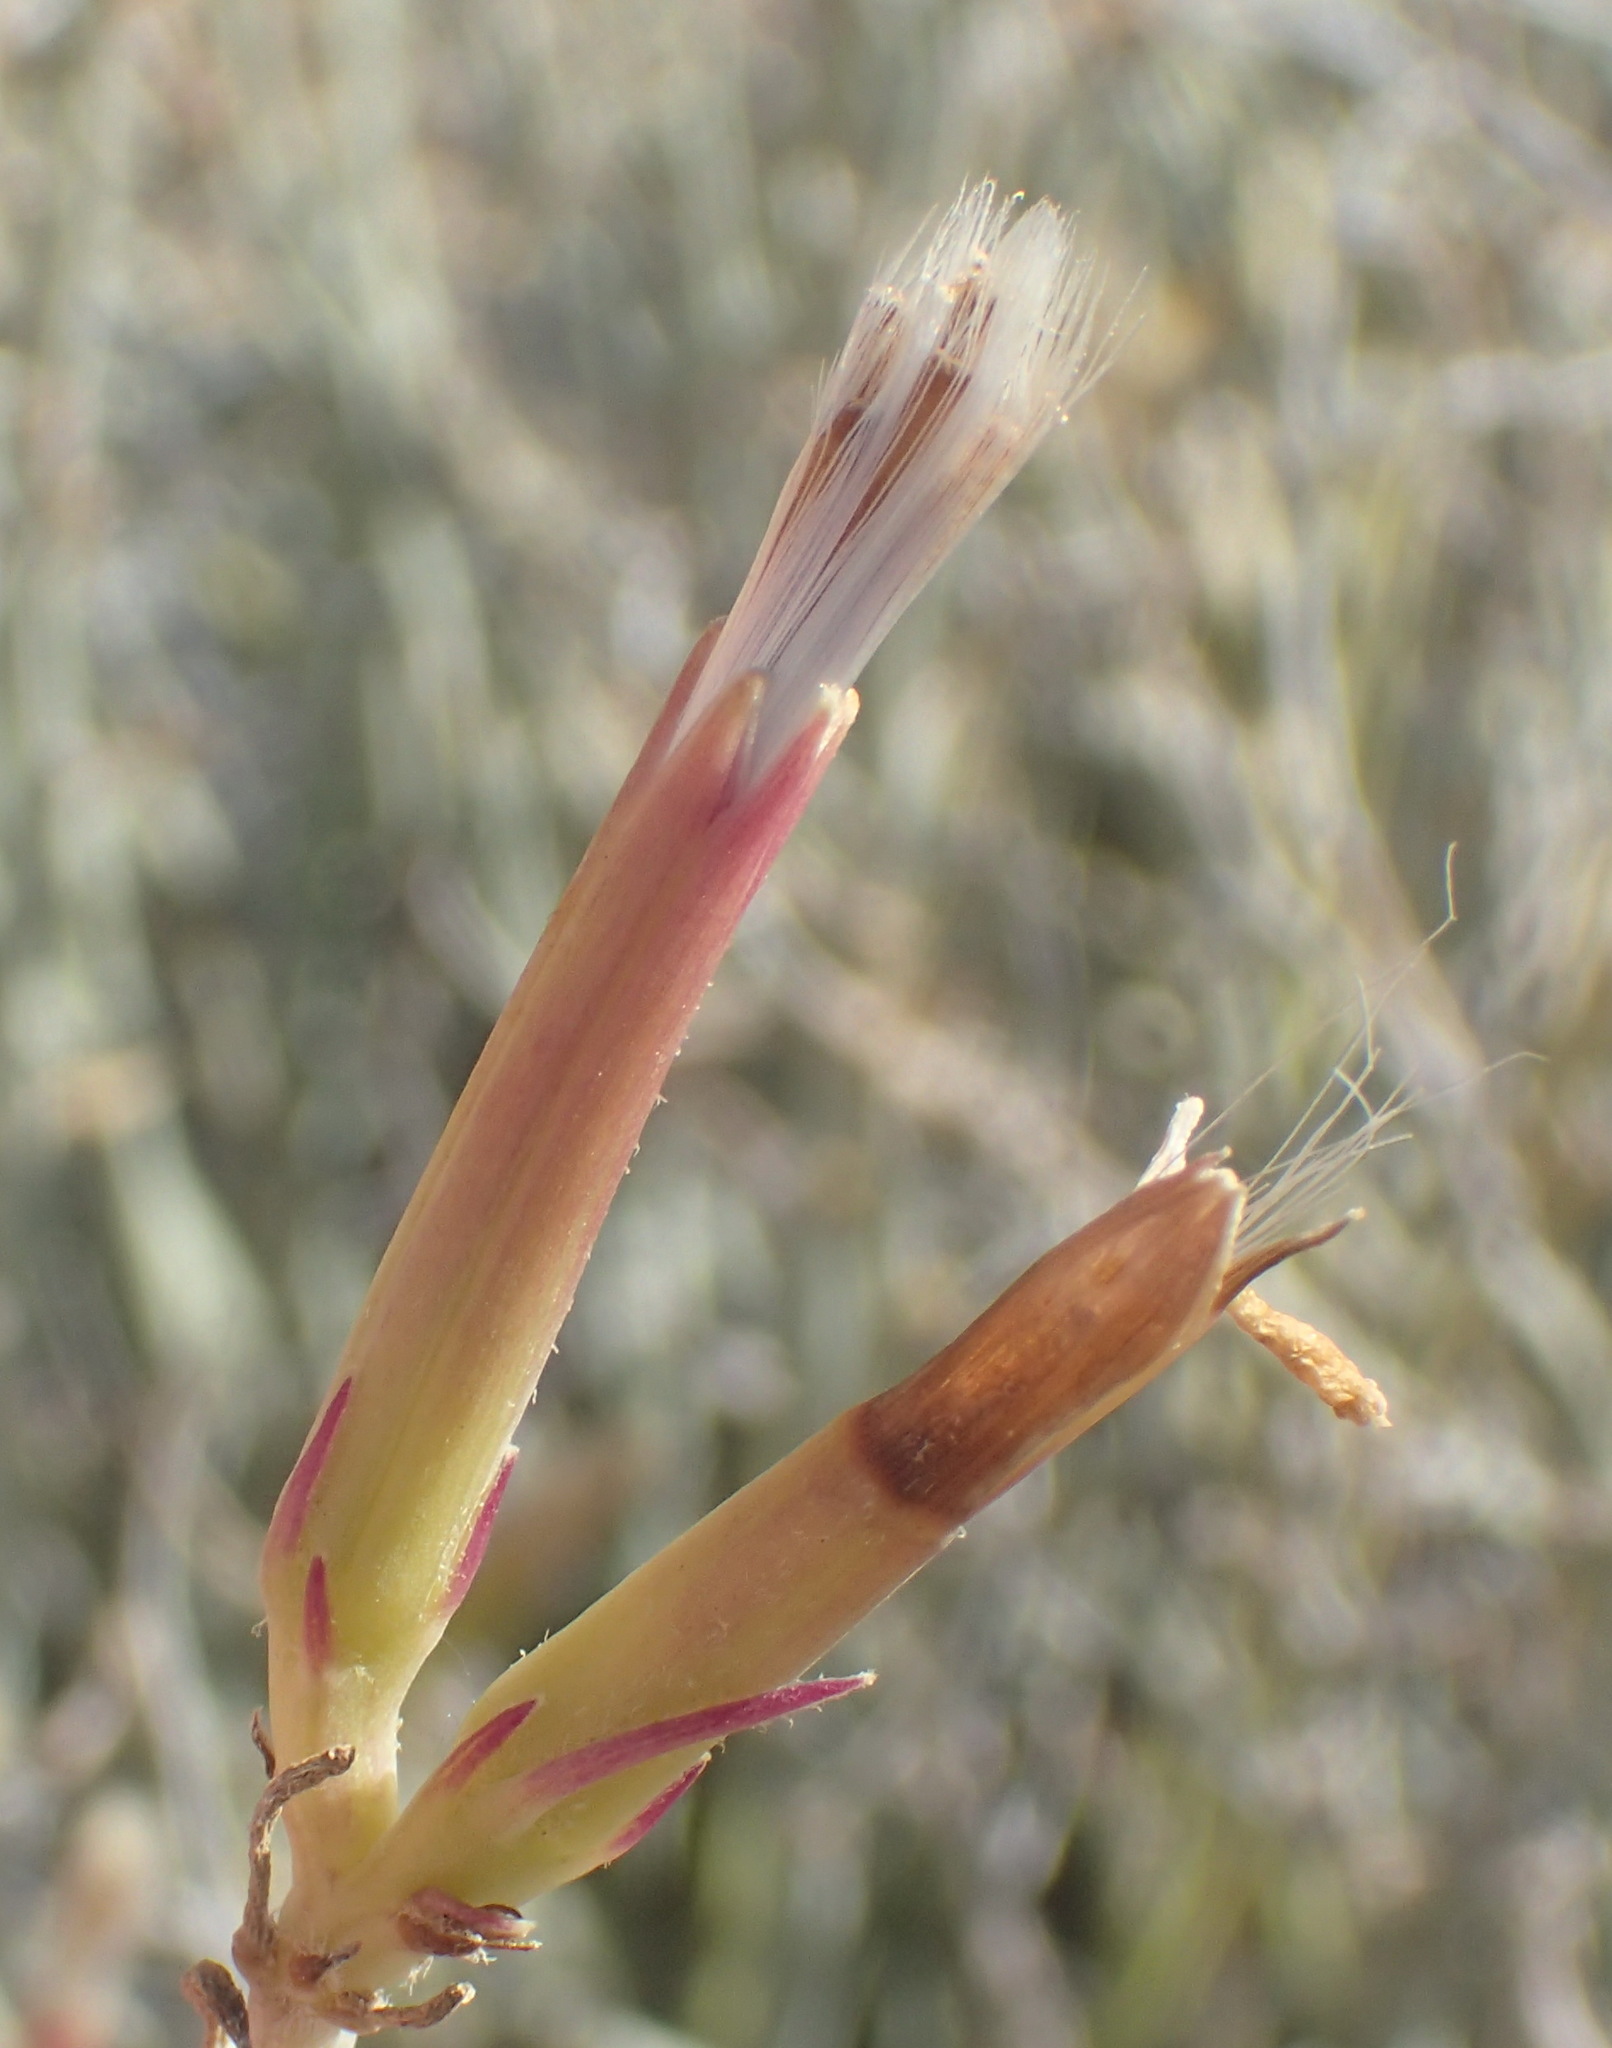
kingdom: Plantae
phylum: Tracheophyta
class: Magnoliopsida
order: Asterales
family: Asteraceae
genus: Curio
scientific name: Curio avasimontanus
